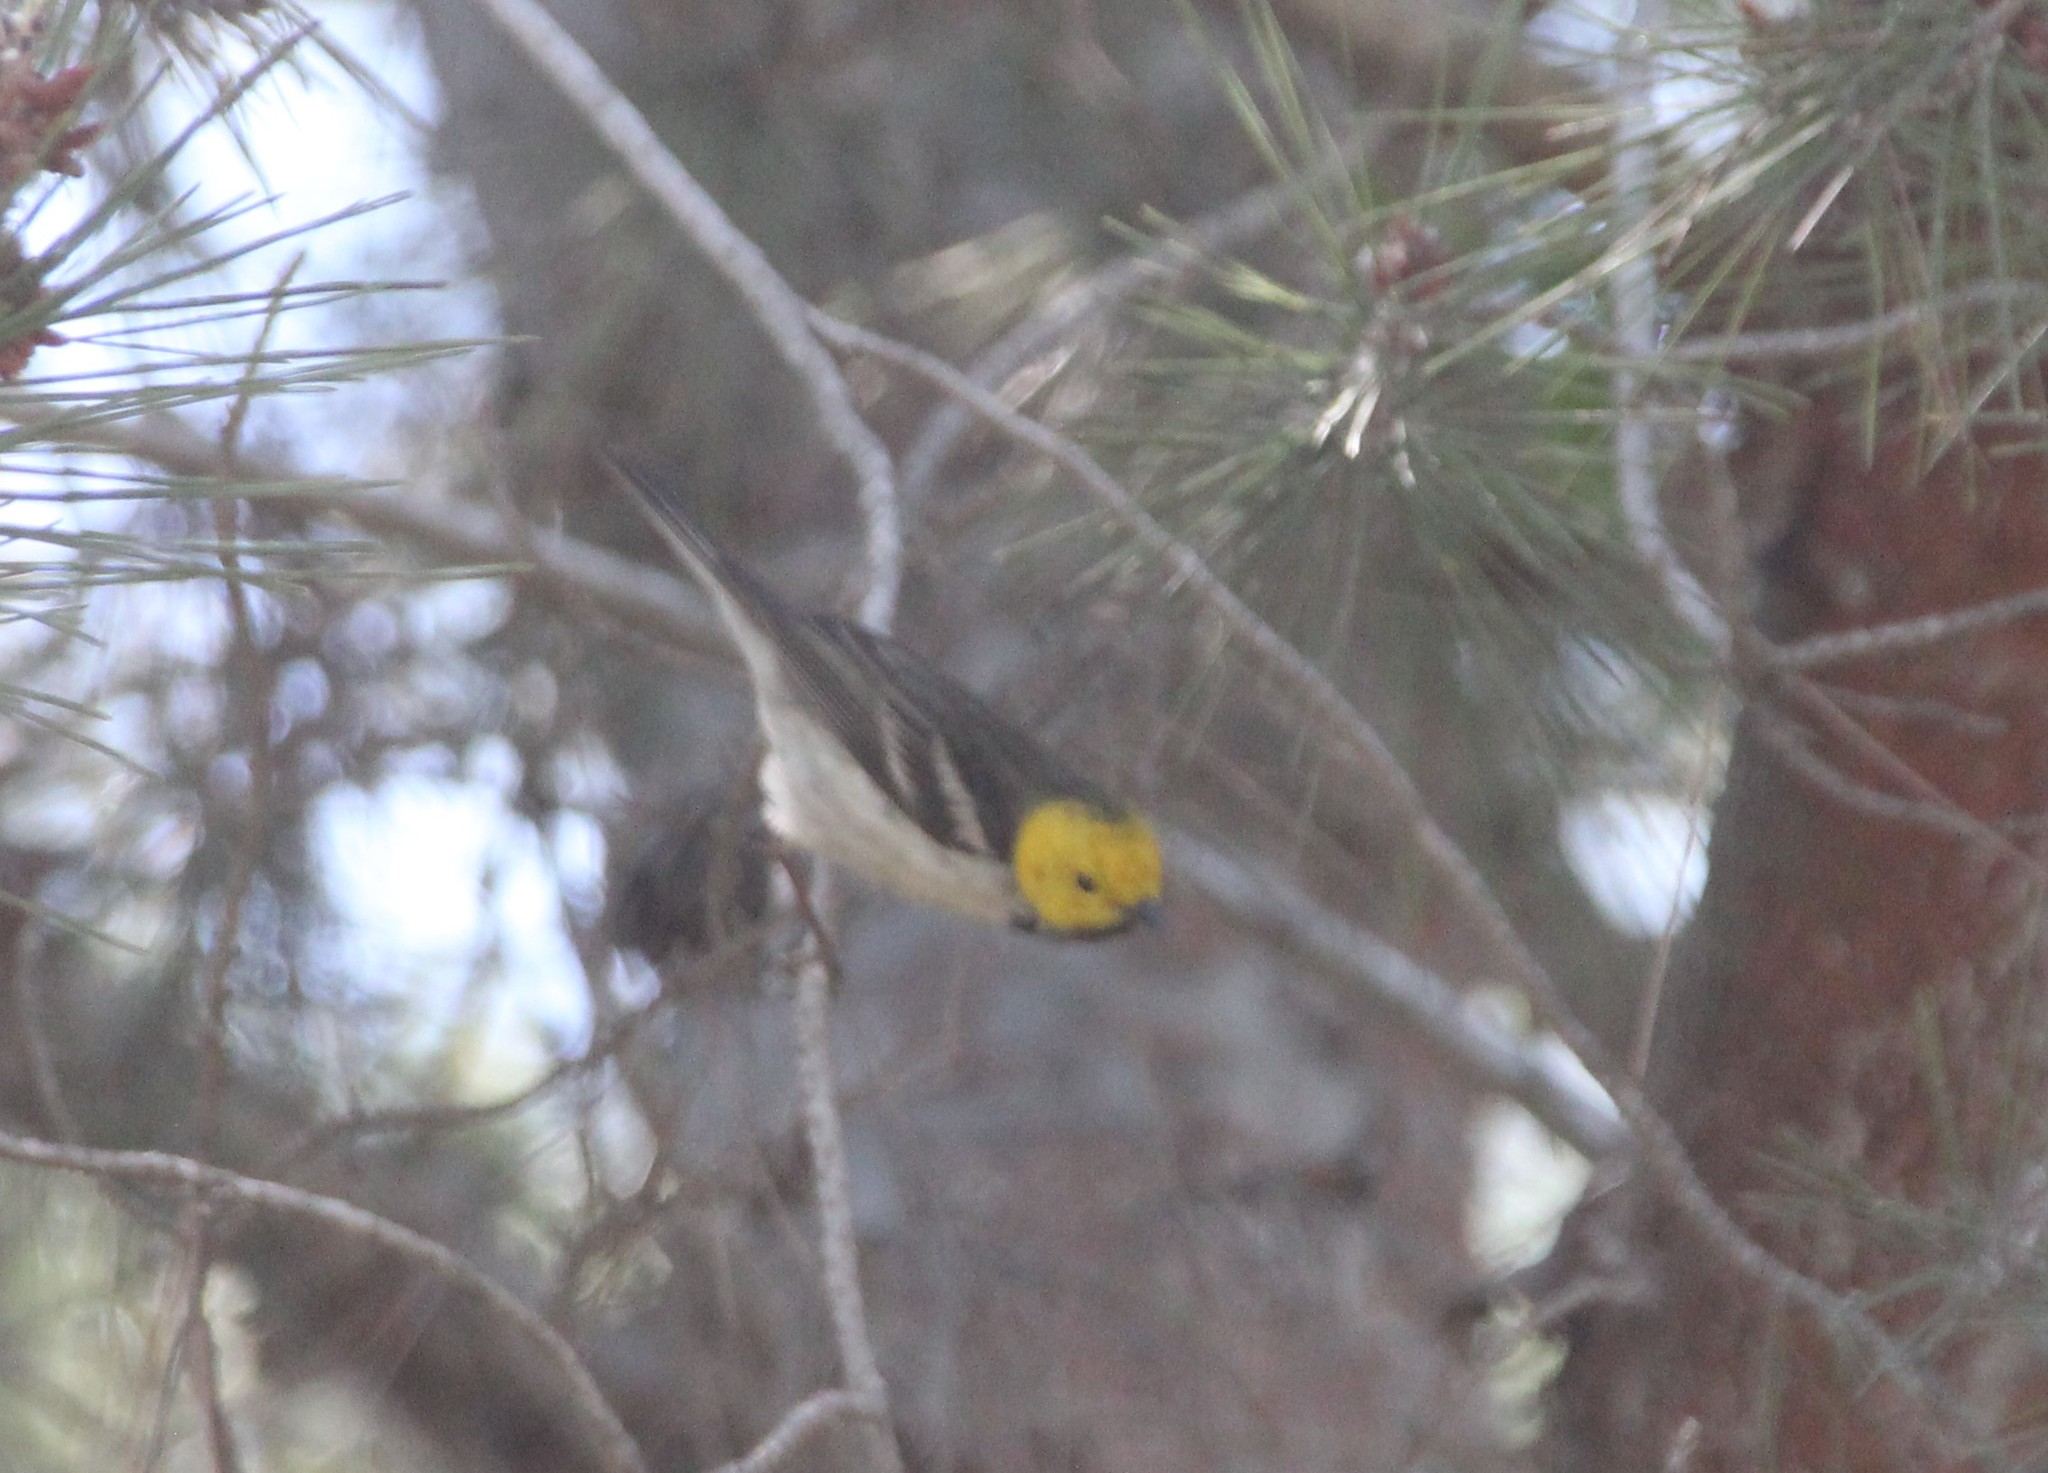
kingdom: Animalia
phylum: Chordata
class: Aves
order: Passeriformes
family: Parulidae
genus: Setophaga
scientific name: Setophaga occidentalis
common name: Hermit warbler
